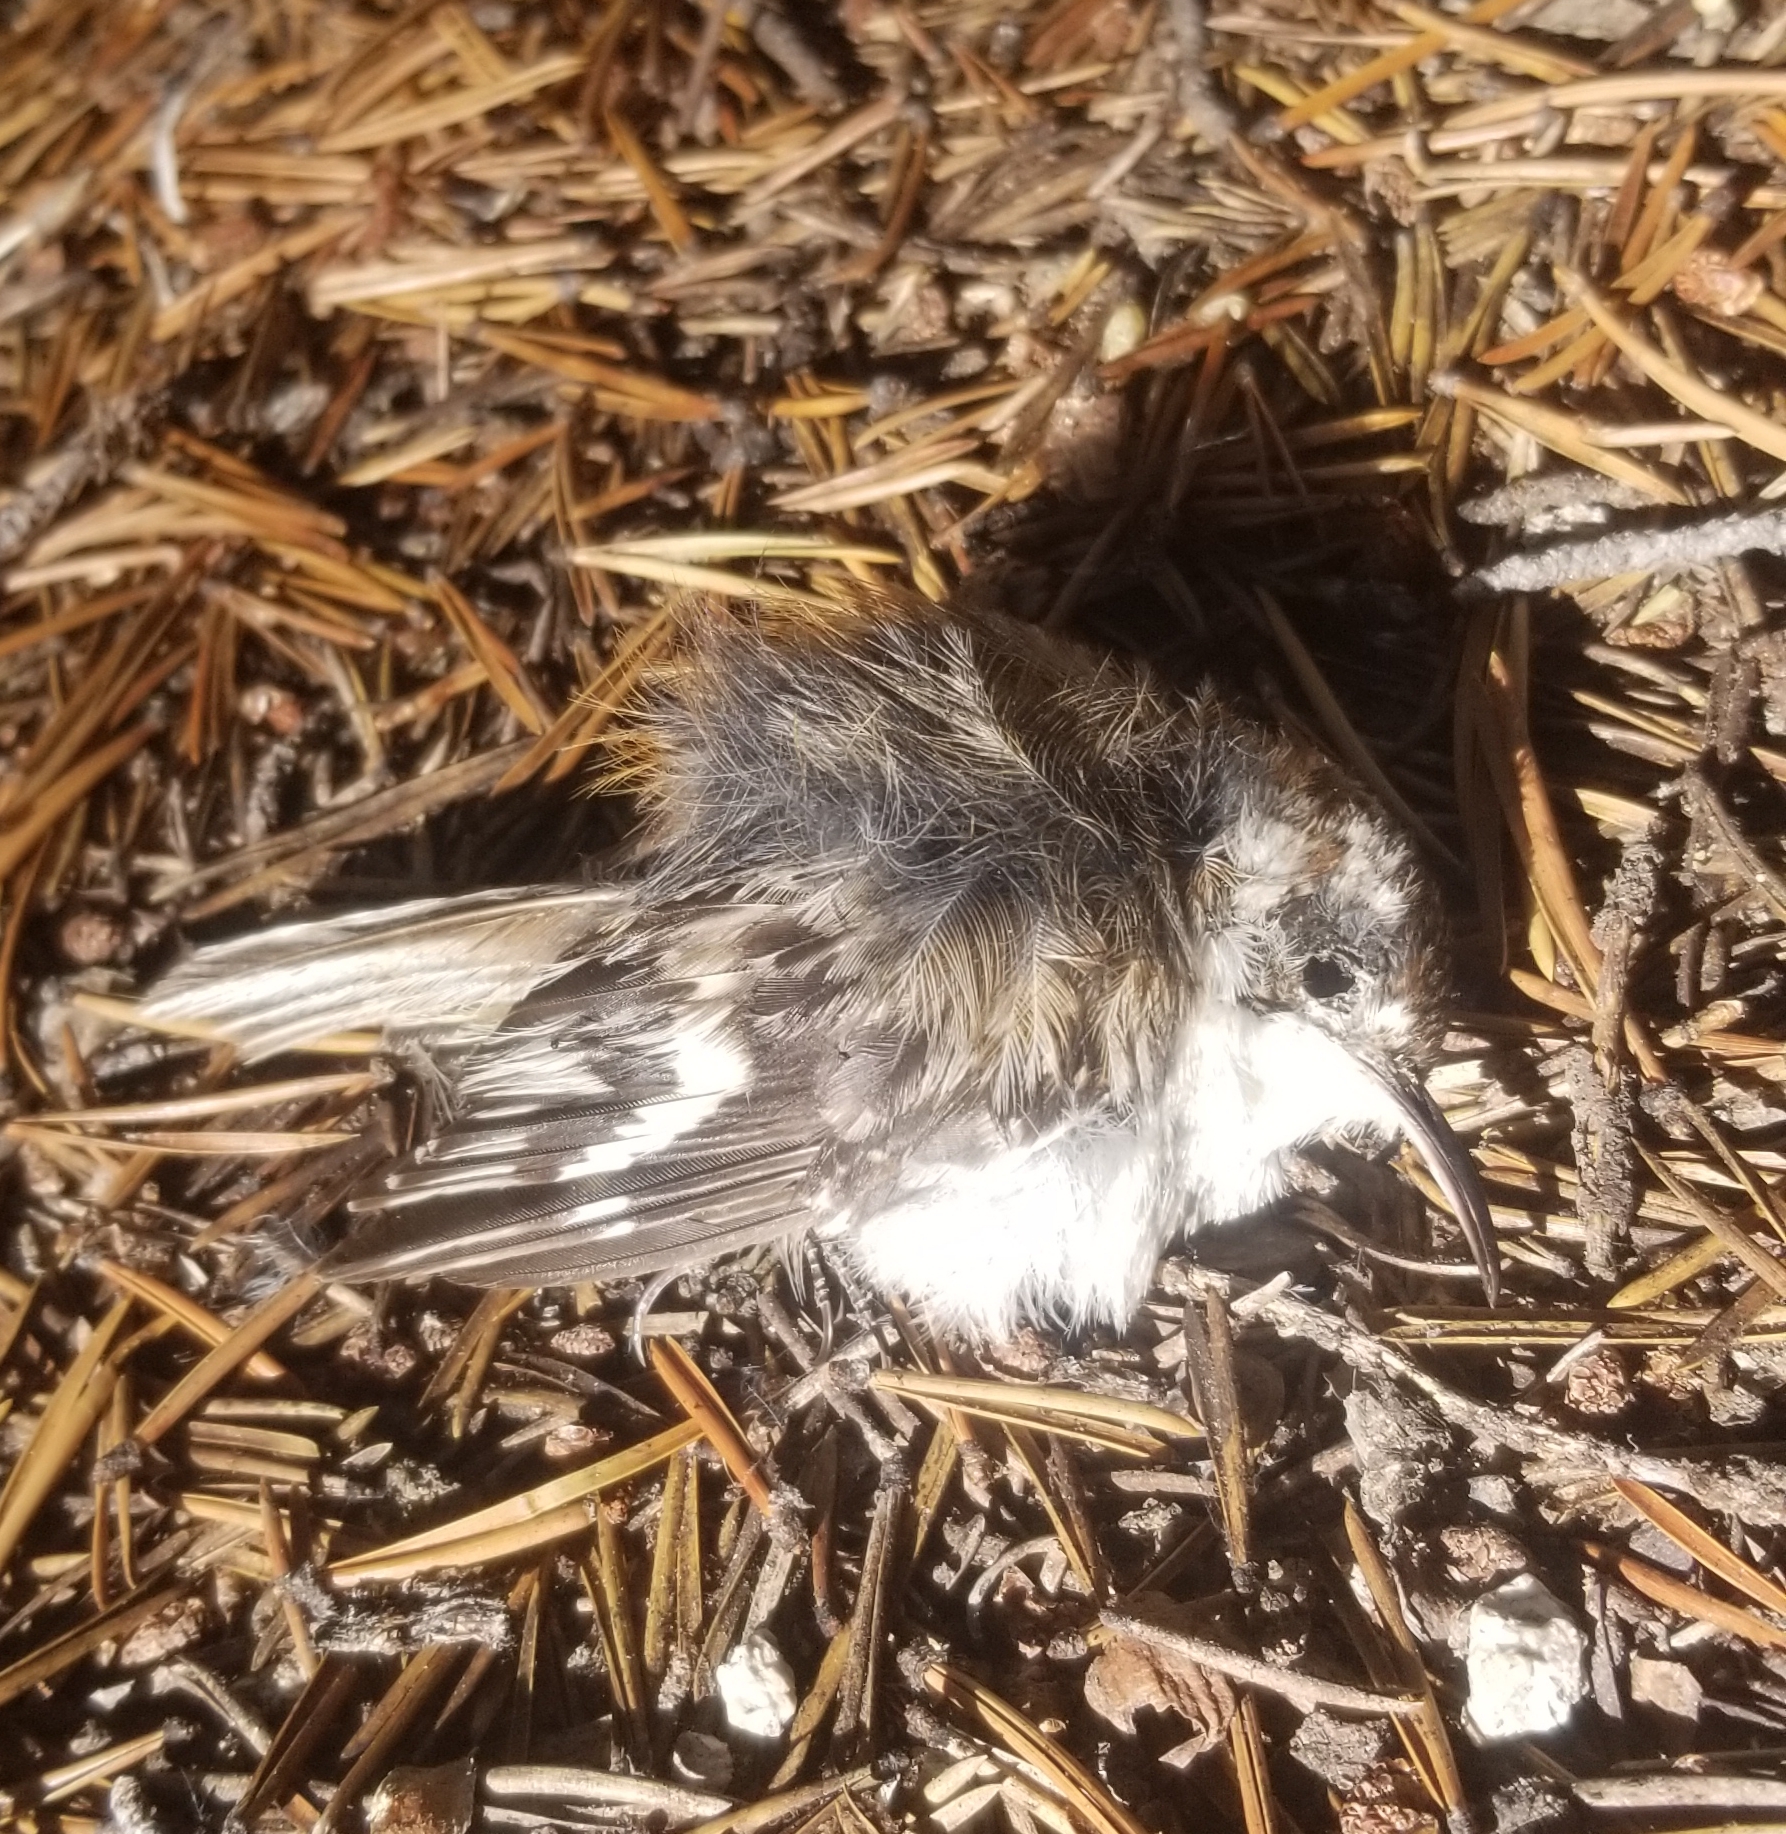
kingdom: Animalia
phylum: Chordata
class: Aves
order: Passeriformes
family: Certhiidae
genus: Certhia
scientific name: Certhia americana
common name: Brown creeper
